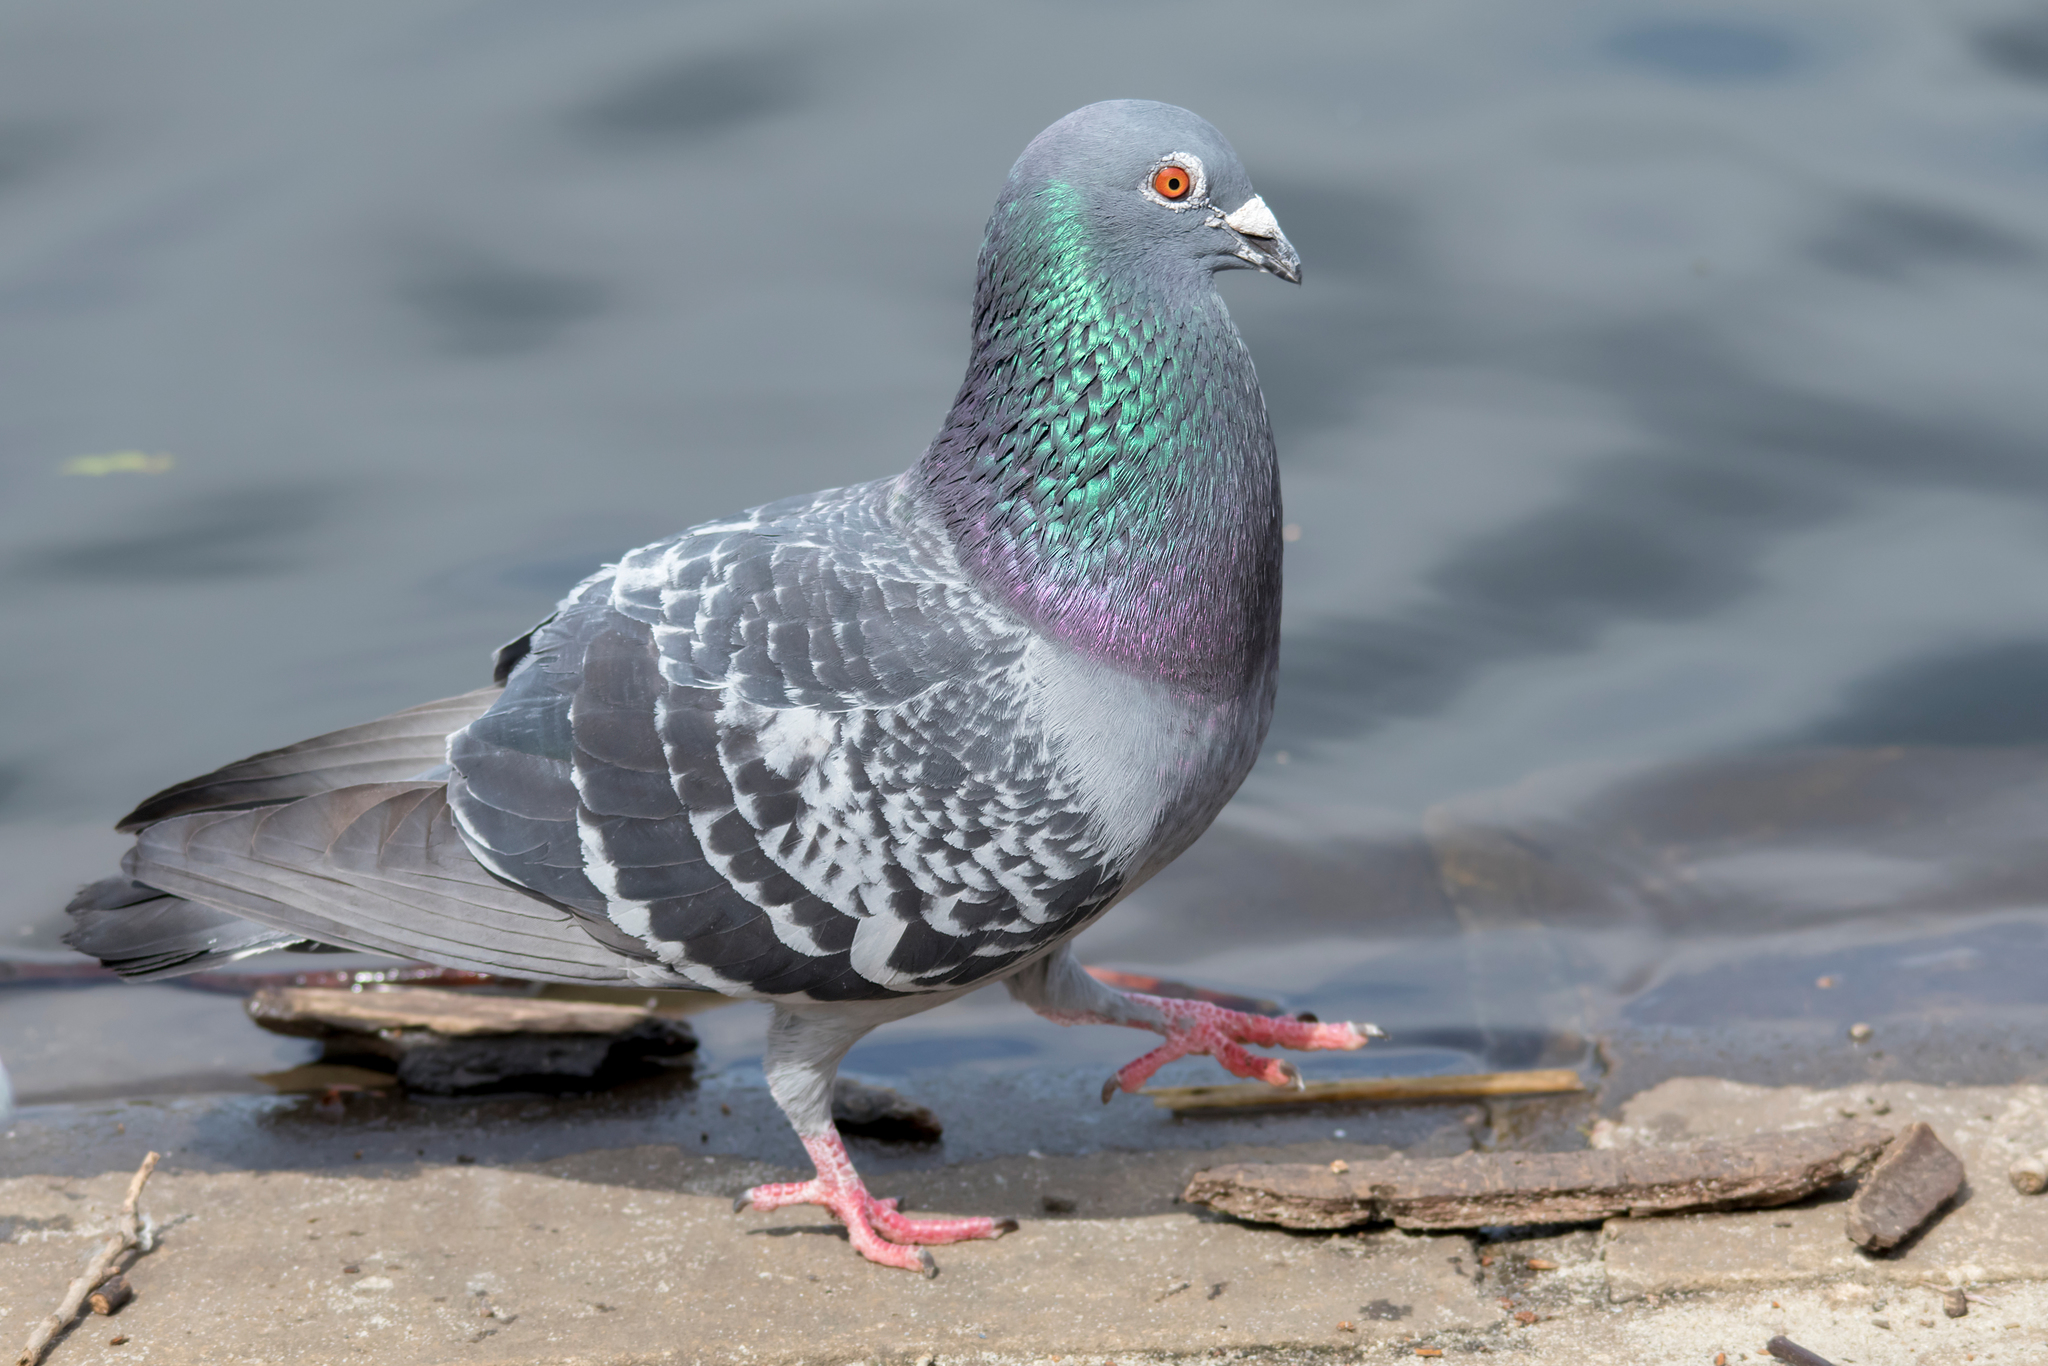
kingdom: Animalia
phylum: Chordata
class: Aves
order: Columbiformes
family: Columbidae
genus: Columba
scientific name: Columba livia
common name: Rock pigeon
